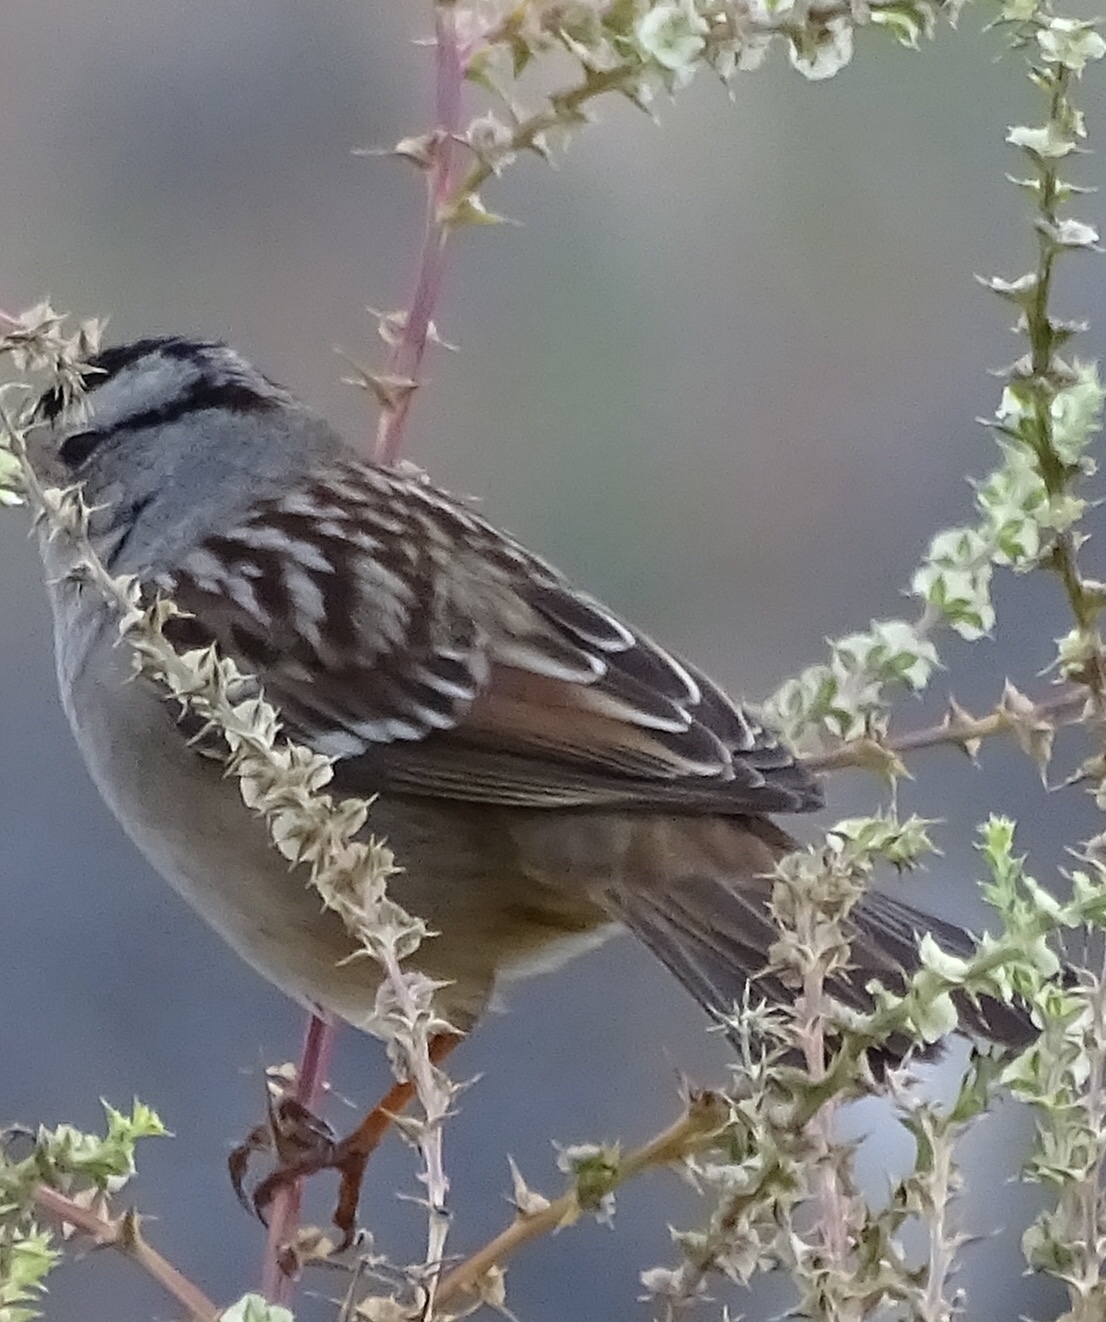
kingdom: Animalia
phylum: Chordata
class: Aves
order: Passeriformes
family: Passerellidae
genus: Zonotrichia
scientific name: Zonotrichia leucophrys
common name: White-crowned sparrow
